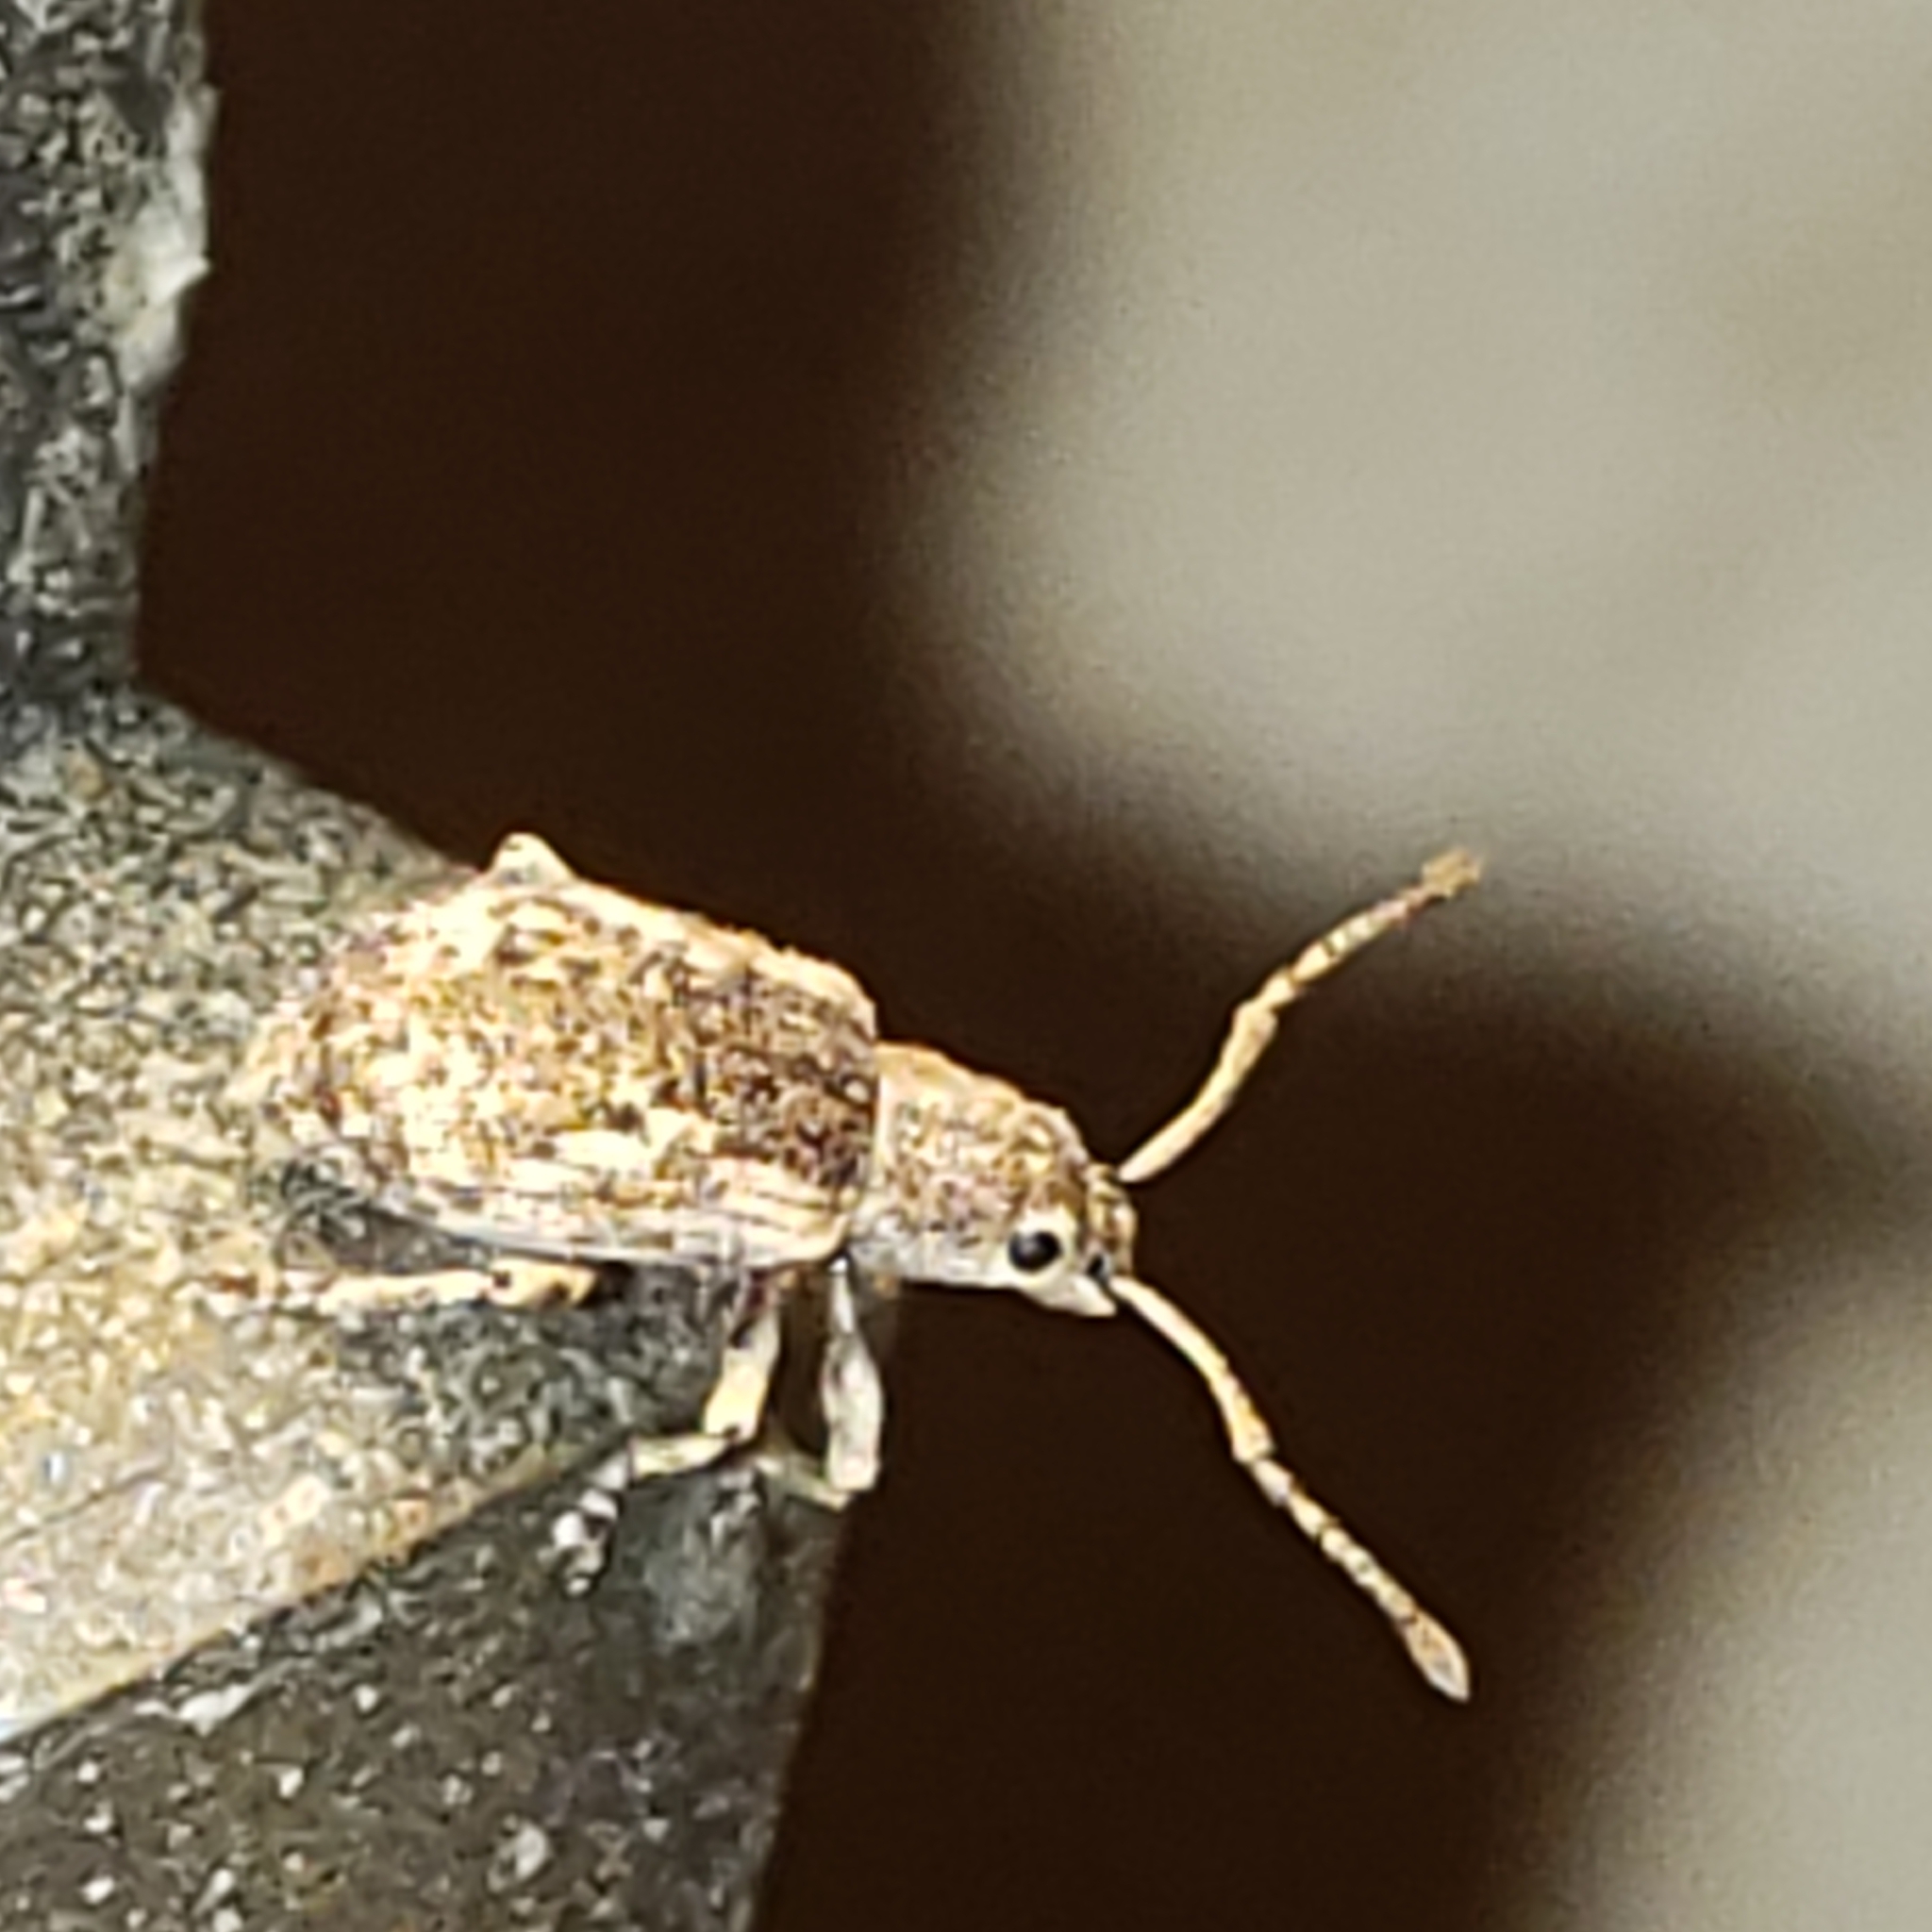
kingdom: Animalia
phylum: Arthropoda
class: Insecta
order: Coleoptera
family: Curculionidae
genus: Pseudoedophrys
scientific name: Pseudoedophrys hilleri
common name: Weevil
